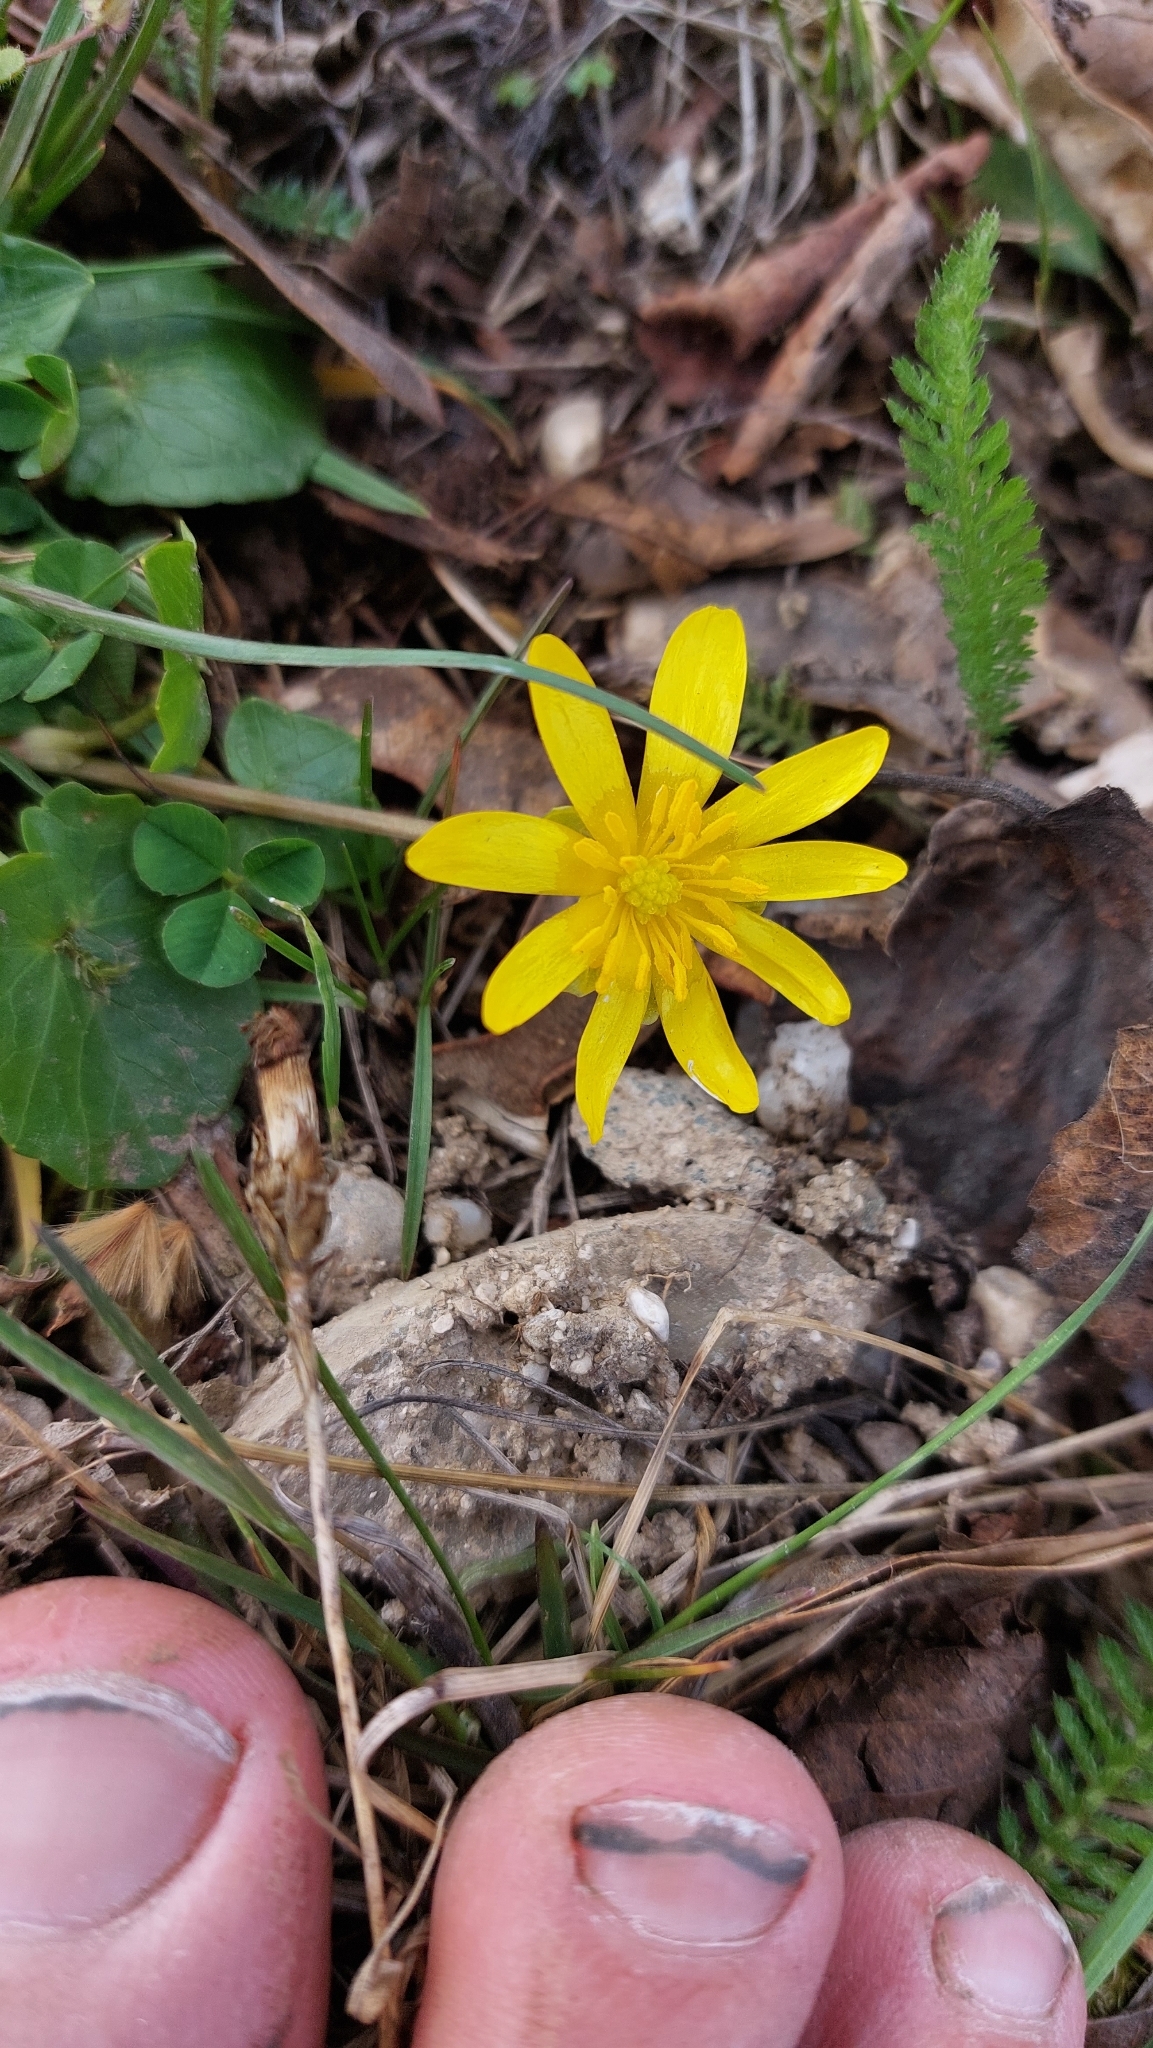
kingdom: Plantae
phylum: Tracheophyta
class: Magnoliopsida
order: Ranunculales
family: Ranunculaceae
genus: Ficaria
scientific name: Ficaria verna
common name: Lesser celandine
